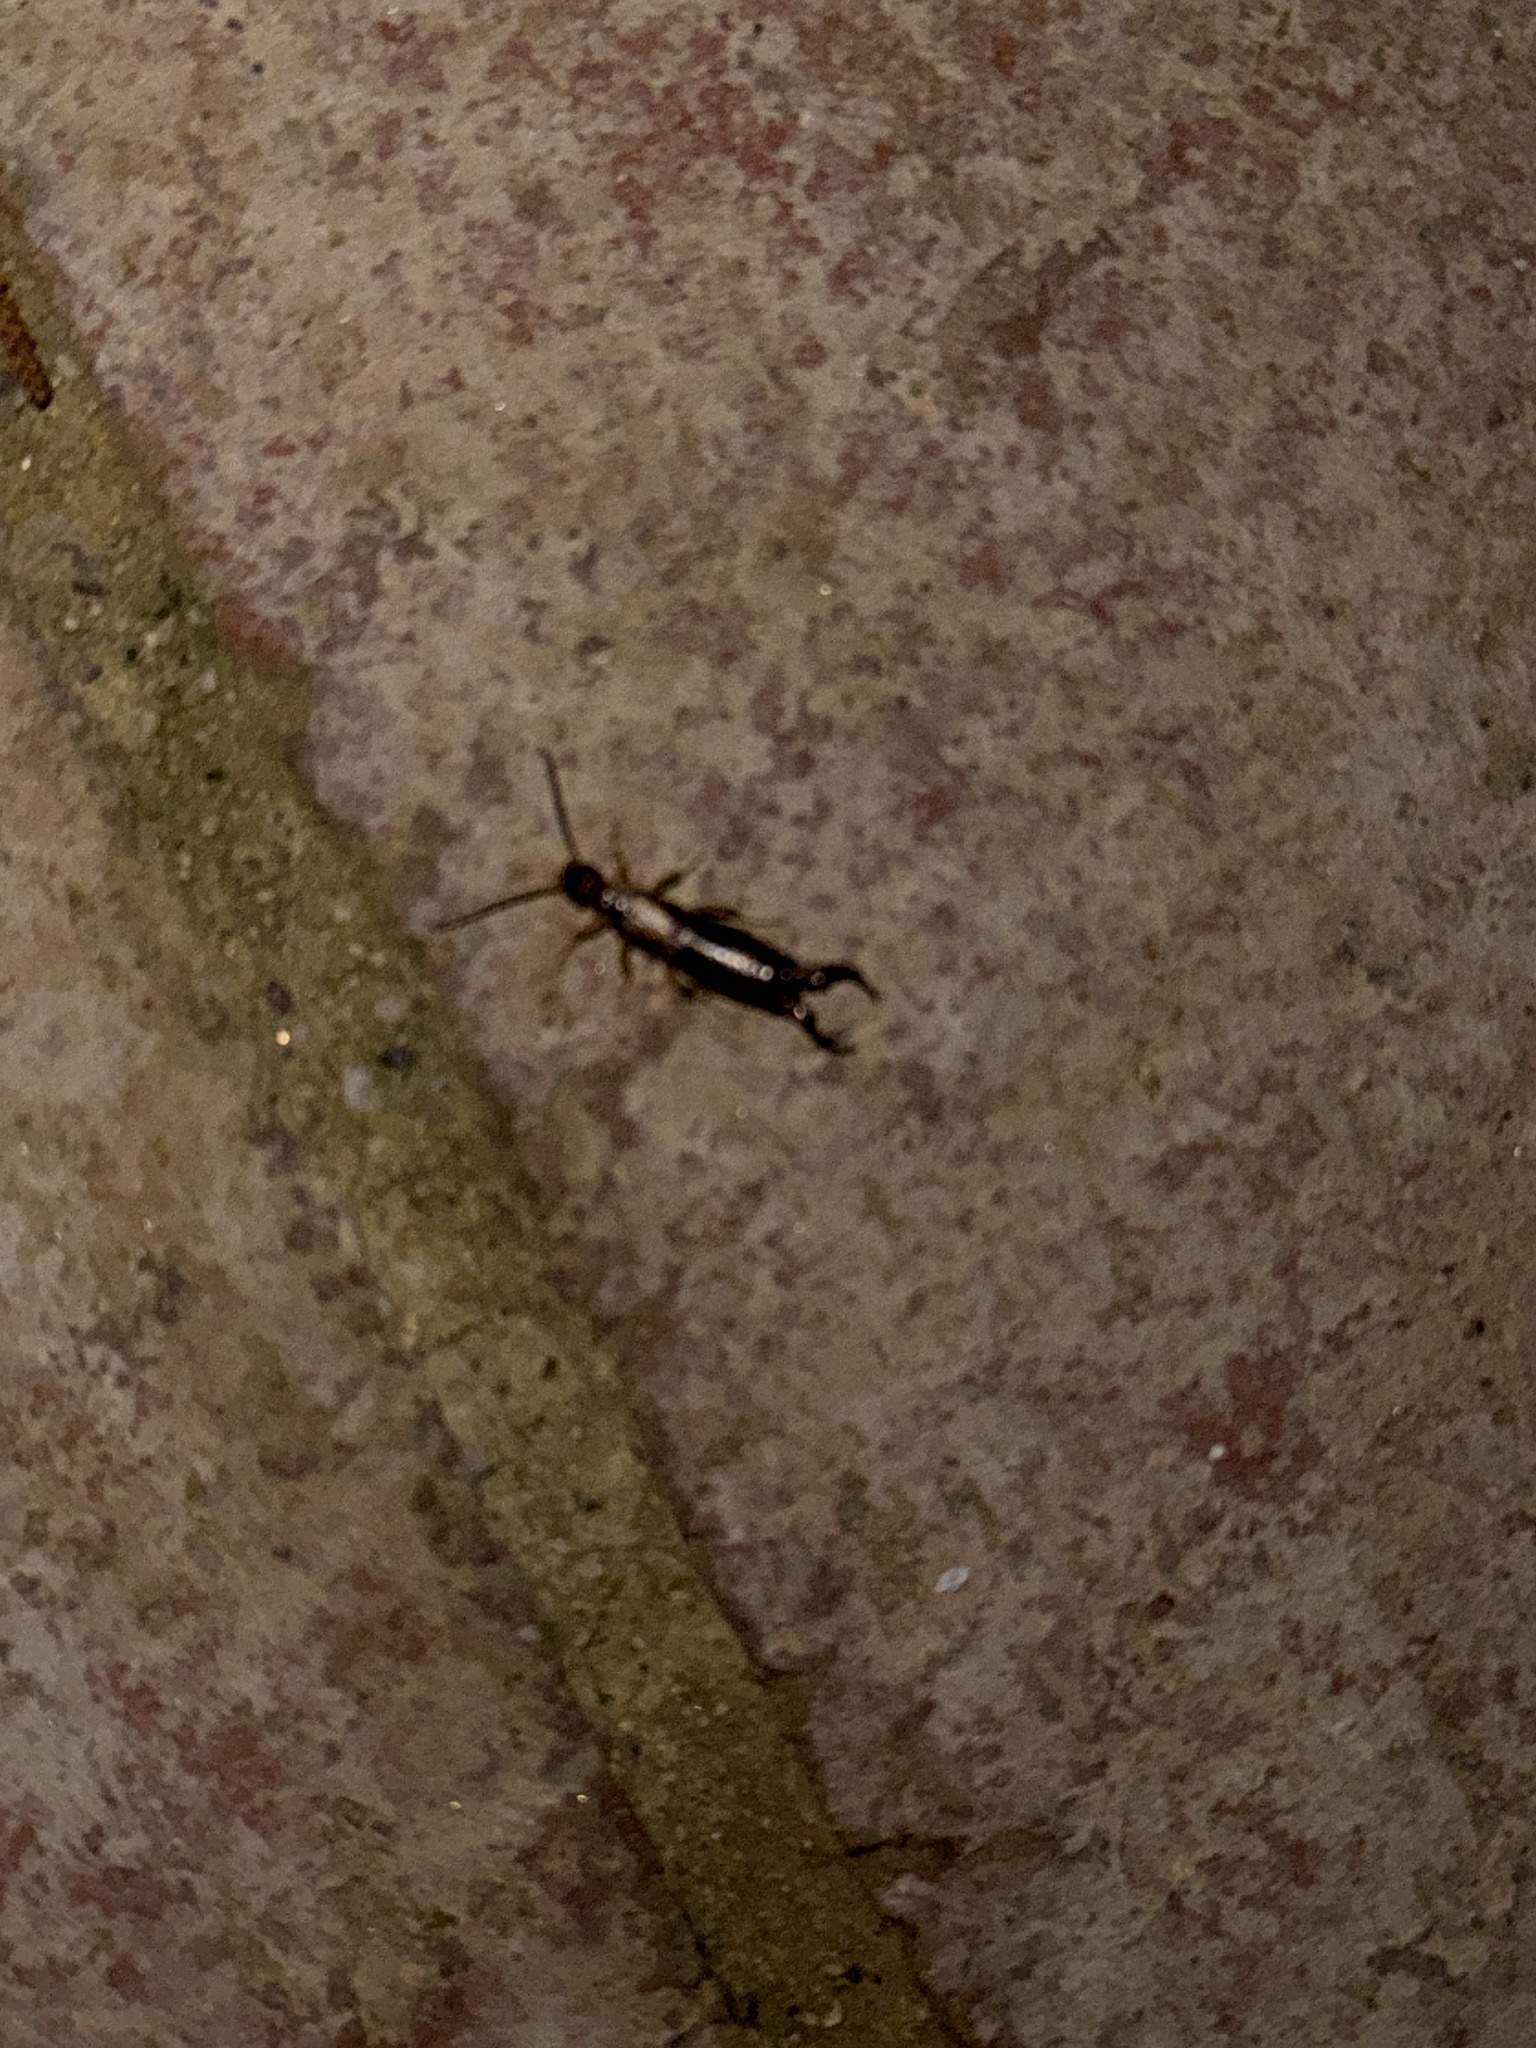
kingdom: Animalia
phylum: Arthropoda
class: Insecta
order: Dermaptera
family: Forficulidae
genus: Forficula
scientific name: Forficula dentata
